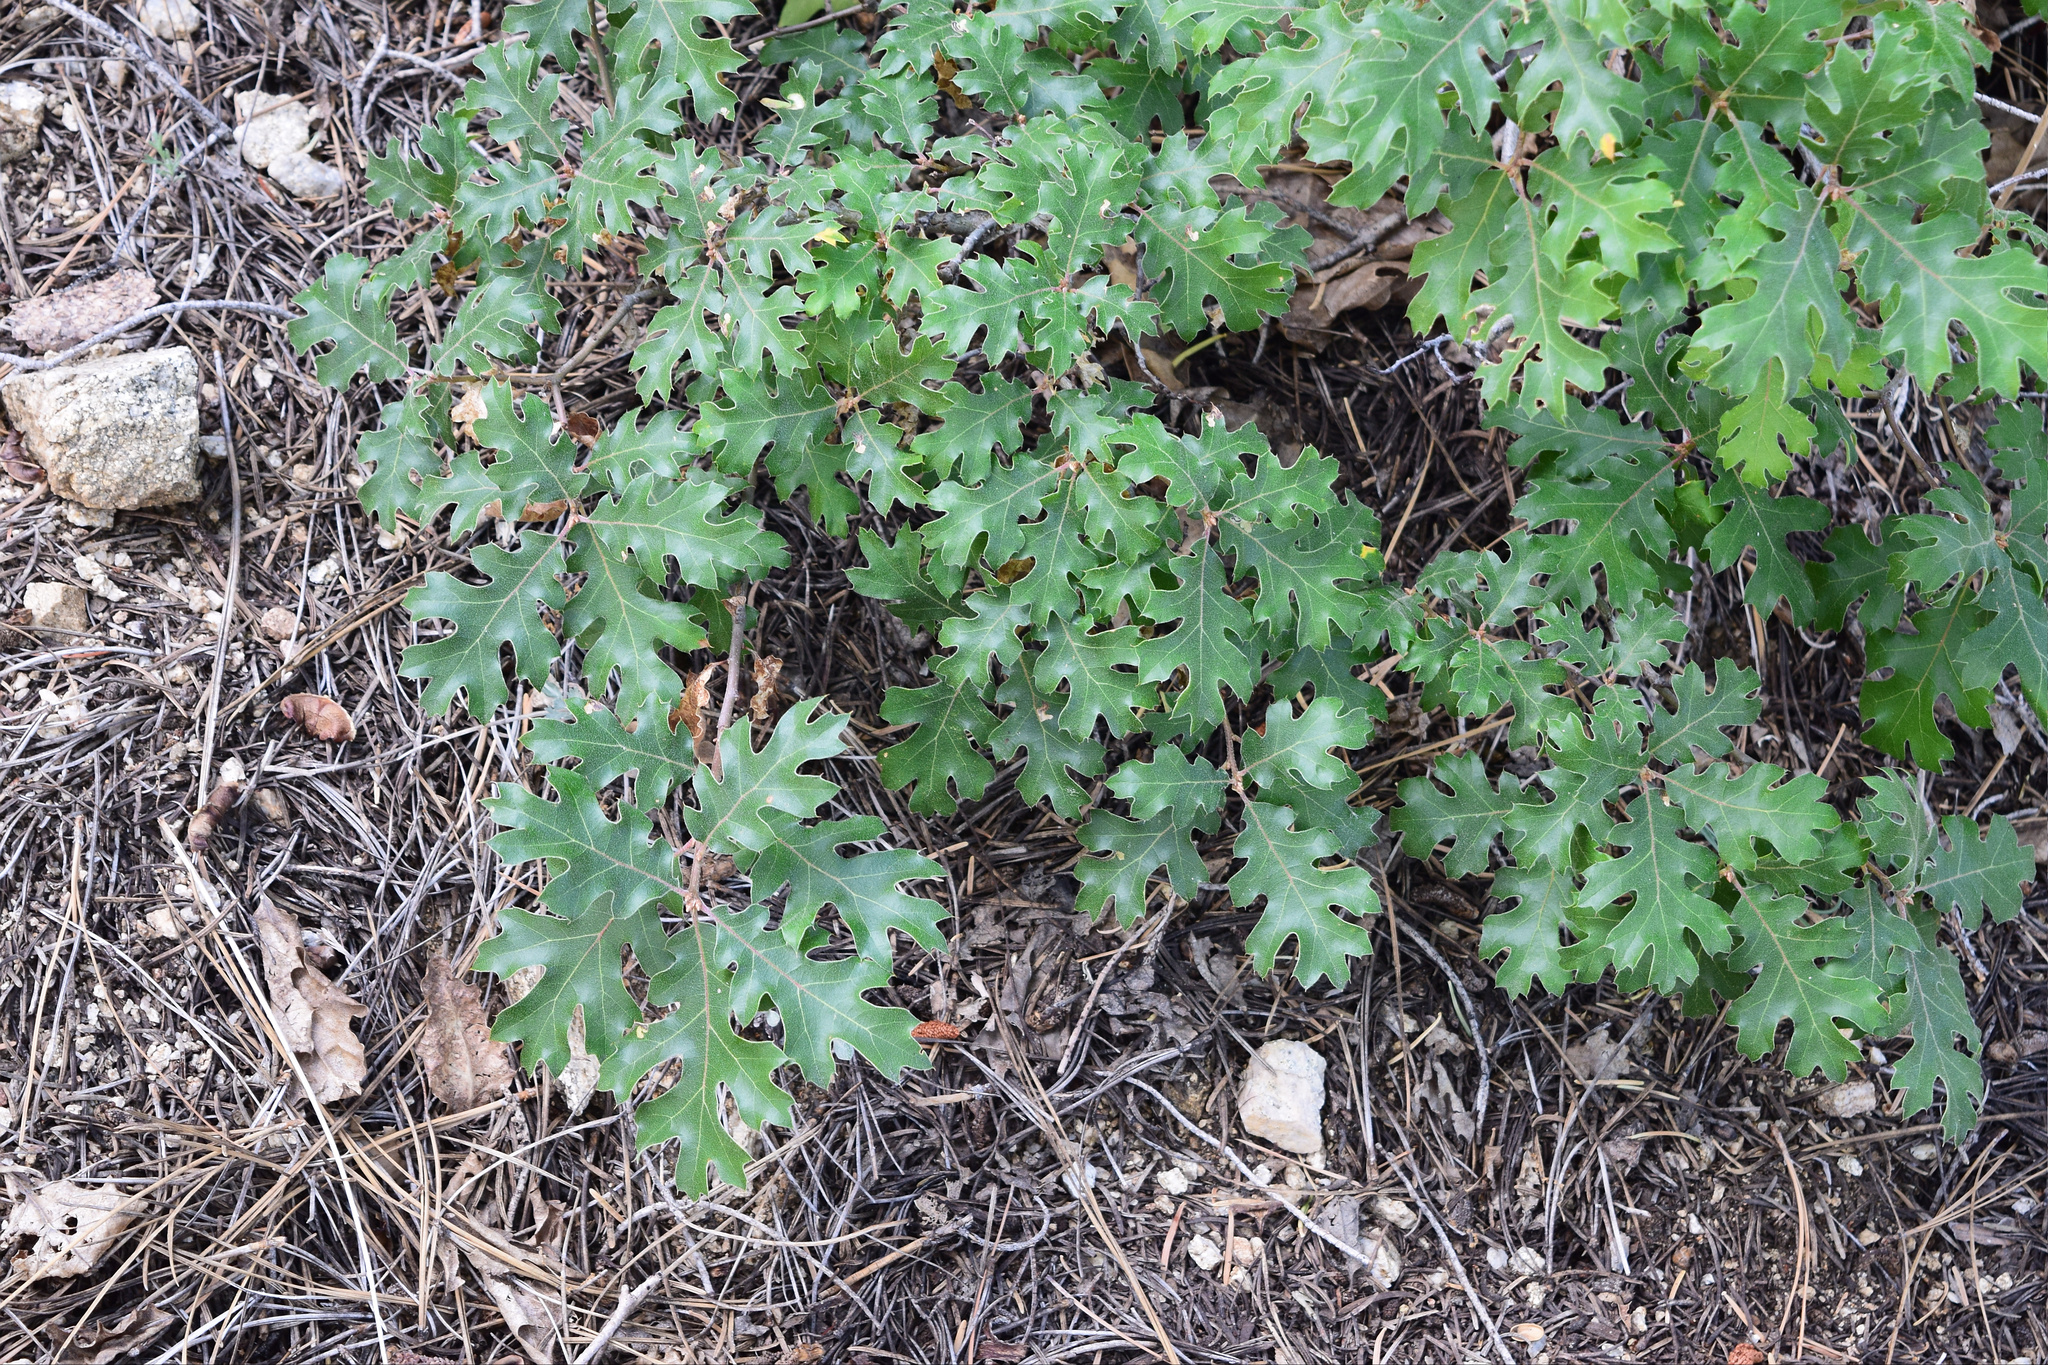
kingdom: Plantae
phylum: Tracheophyta
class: Magnoliopsida
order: Fagales
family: Fagaceae
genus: Quercus
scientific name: Quercus kelloggii
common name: California black oak
